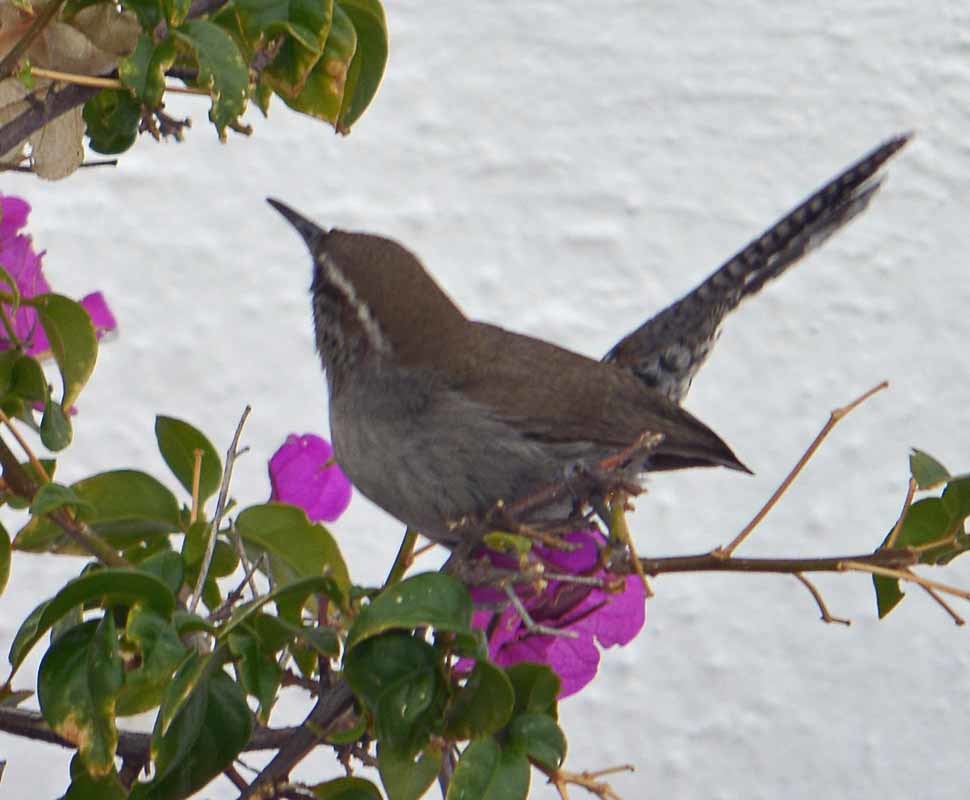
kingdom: Animalia
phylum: Chordata
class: Aves
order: Passeriformes
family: Troglodytidae
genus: Thryomanes
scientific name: Thryomanes bewickii
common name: Bewick's wren
